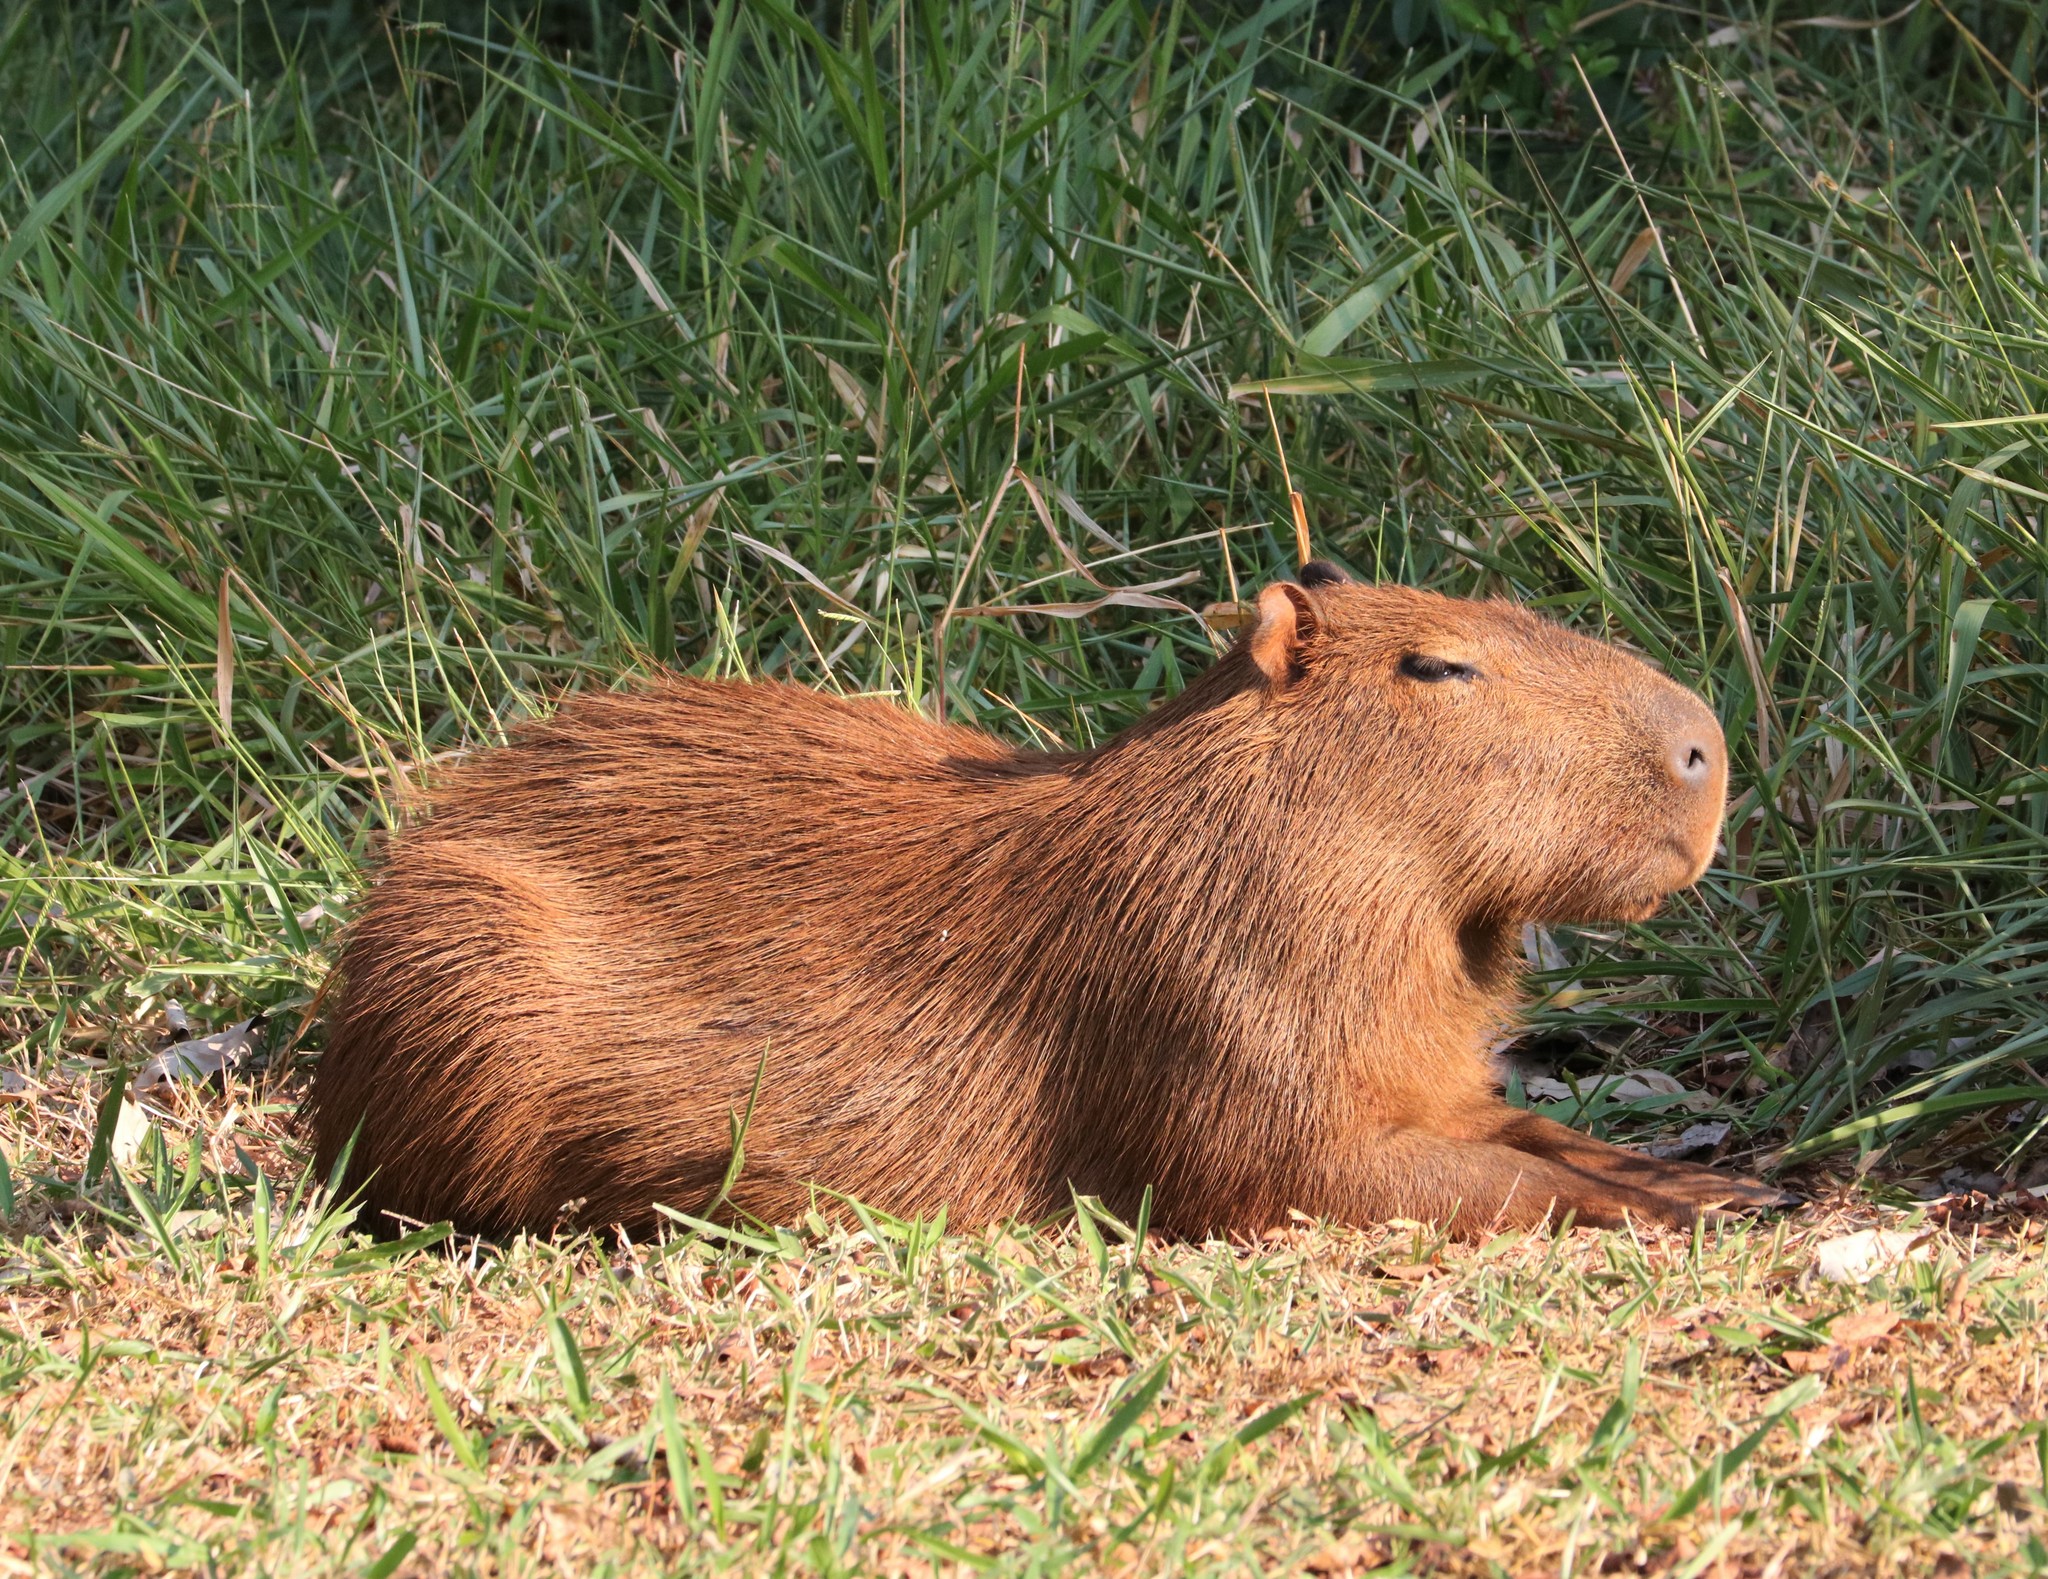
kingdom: Animalia
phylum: Chordata
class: Mammalia
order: Rodentia
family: Caviidae
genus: Hydrochoerus
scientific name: Hydrochoerus hydrochaeris
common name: Capybara
